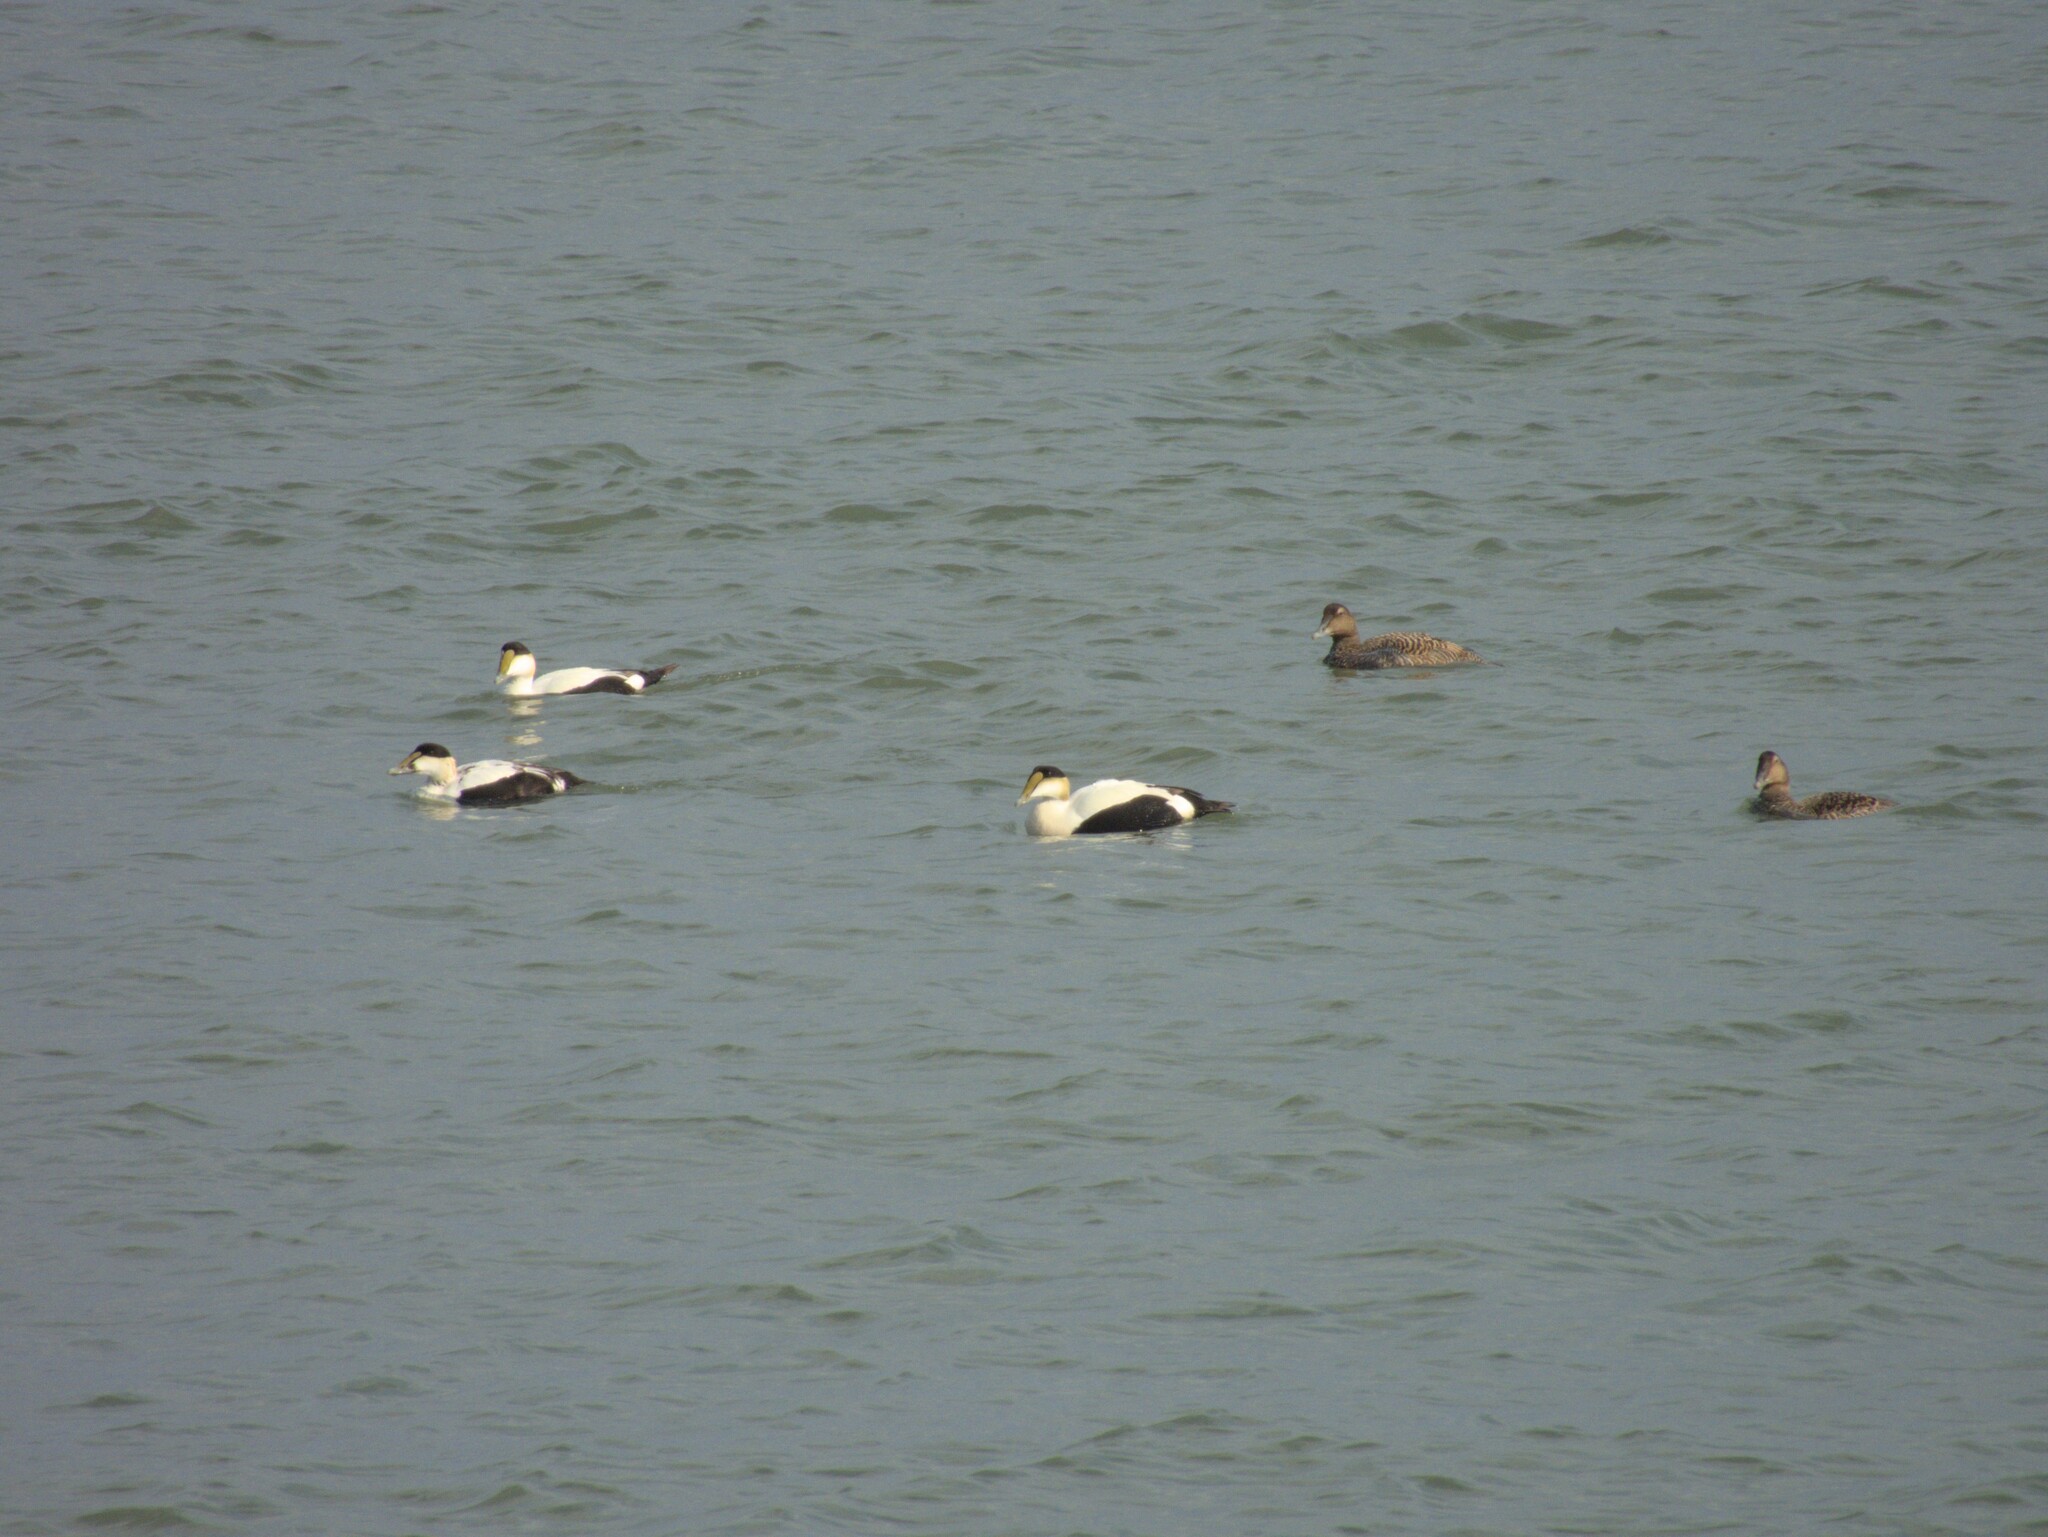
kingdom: Animalia
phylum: Chordata
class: Aves
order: Anseriformes
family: Anatidae
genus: Somateria
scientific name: Somateria mollissima
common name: Common eider
